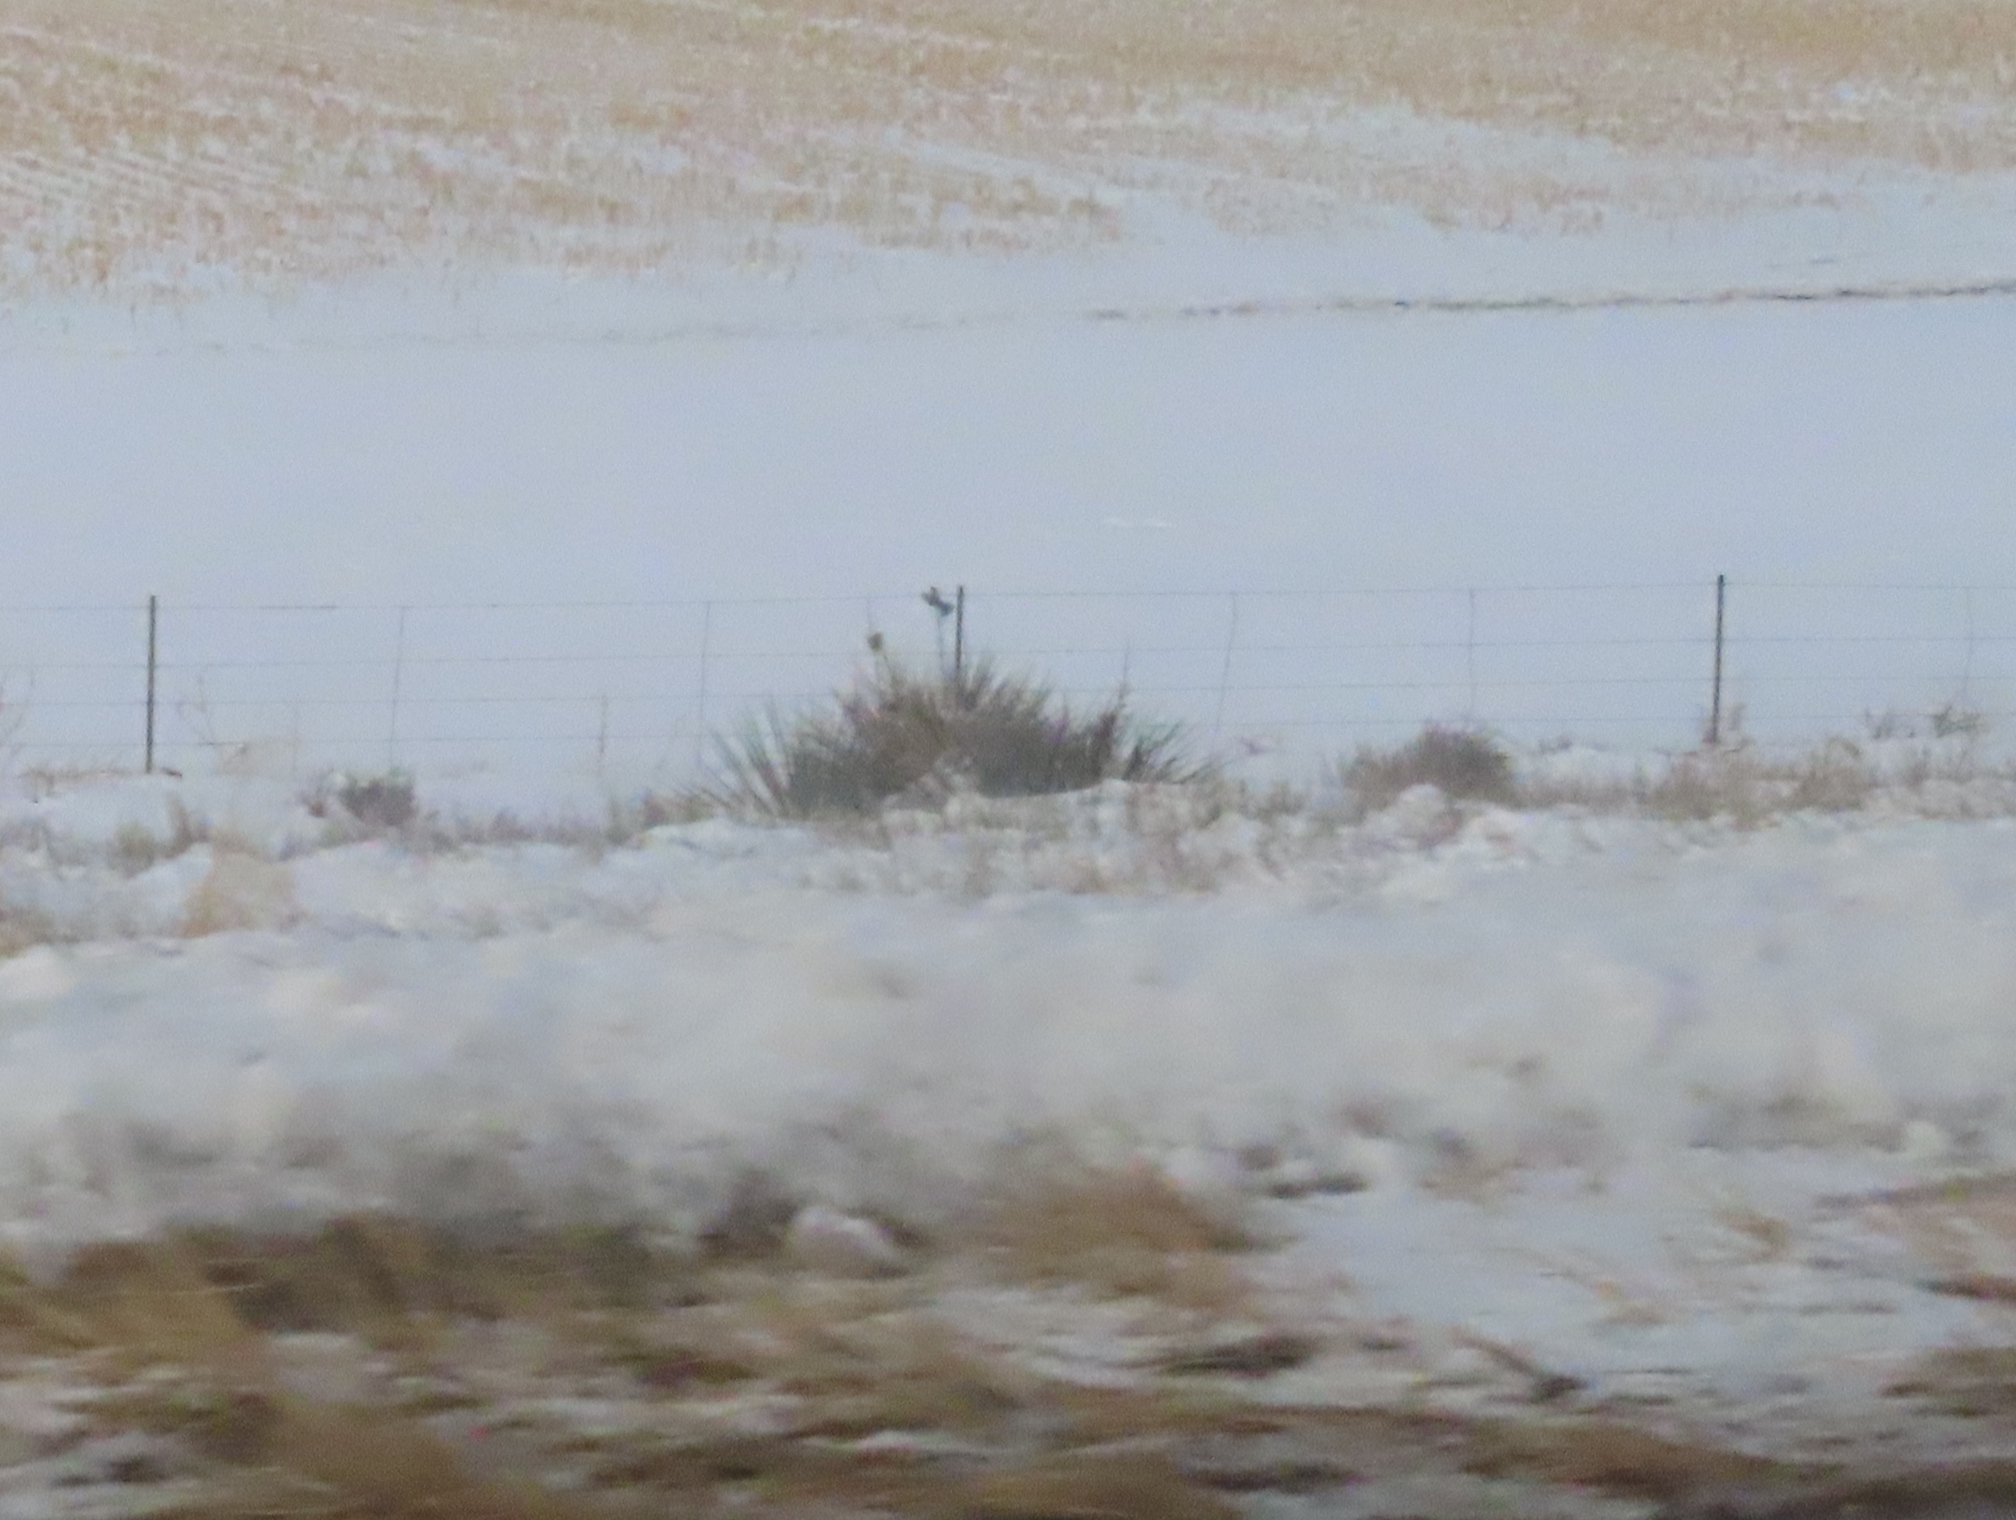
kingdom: Plantae
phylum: Tracheophyta
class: Liliopsida
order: Asparagales
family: Asparagaceae
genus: Yucca
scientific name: Yucca glauca
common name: Great plains yucca
